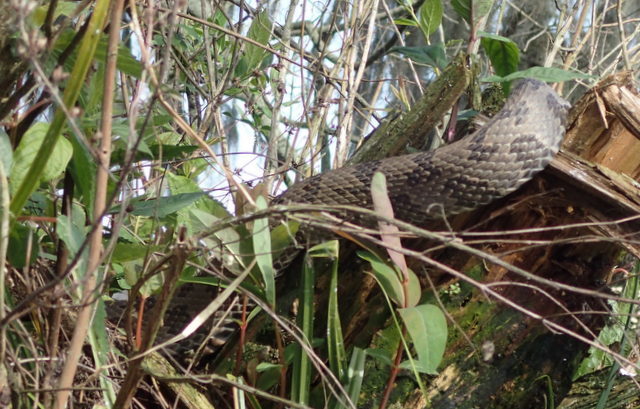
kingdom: Animalia
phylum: Chordata
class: Squamata
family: Colubridae
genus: Nerodia
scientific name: Nerodia taxispilota
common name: Brown water snake
